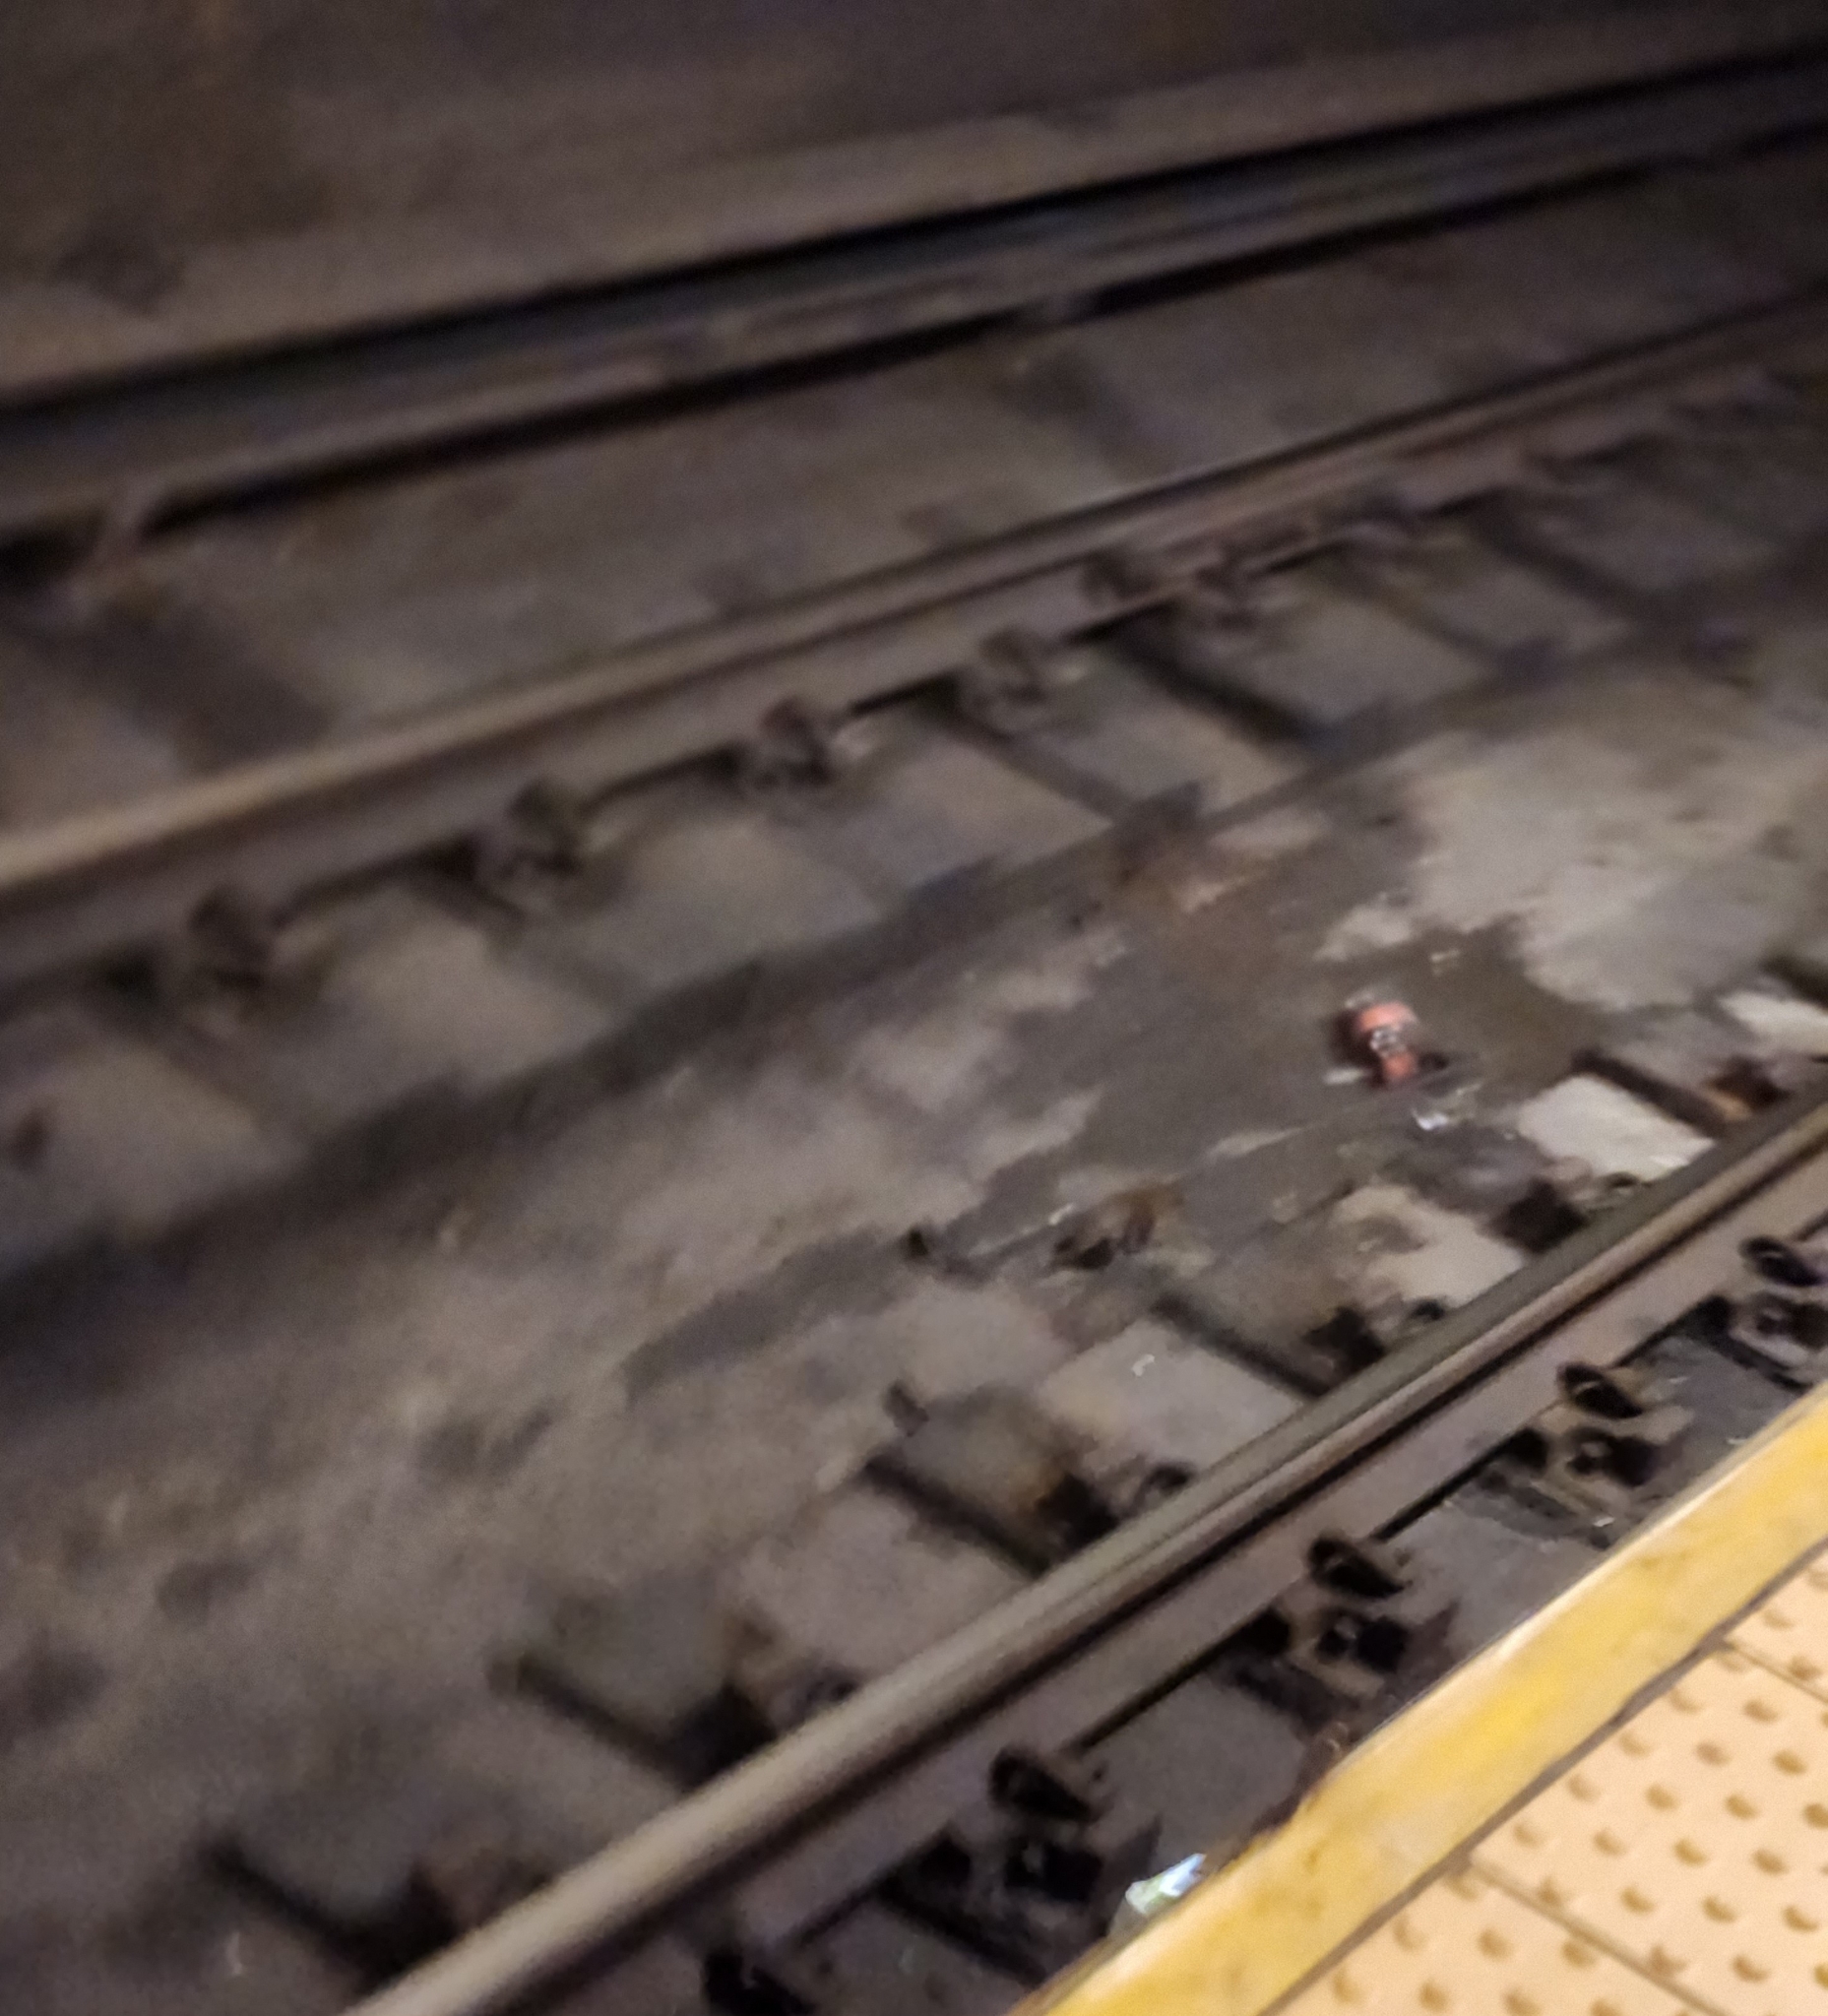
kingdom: Animalia
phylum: Chordata
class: Mammalia
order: Rodentia
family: Muridae
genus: Rattus
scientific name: Rattus norvegicus
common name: Brown rat
